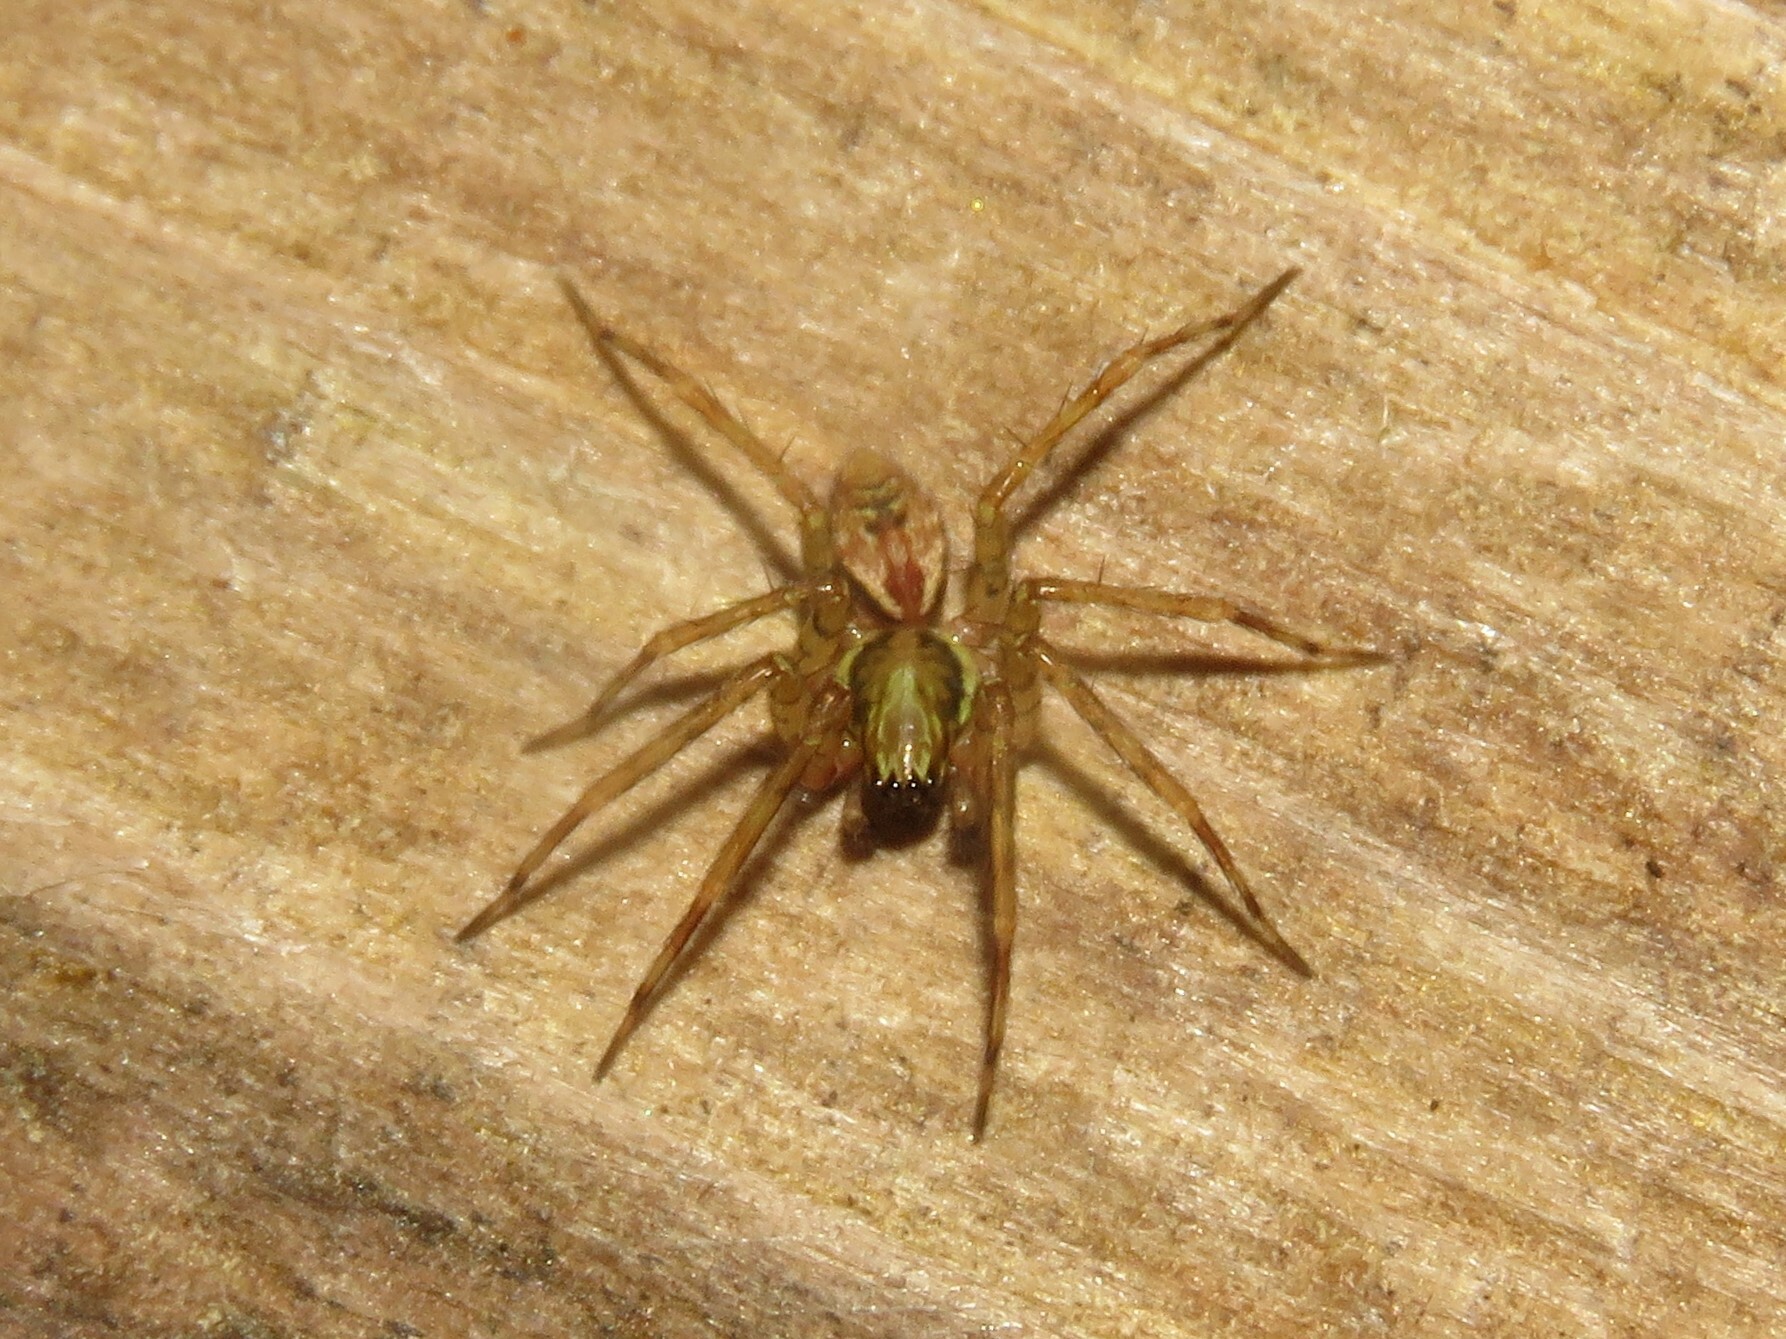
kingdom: Animalia
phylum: Arthropoda
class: Arachnida
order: Araneae
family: Cybaeidae
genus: Dirksia
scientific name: Dirksia cinctipes
